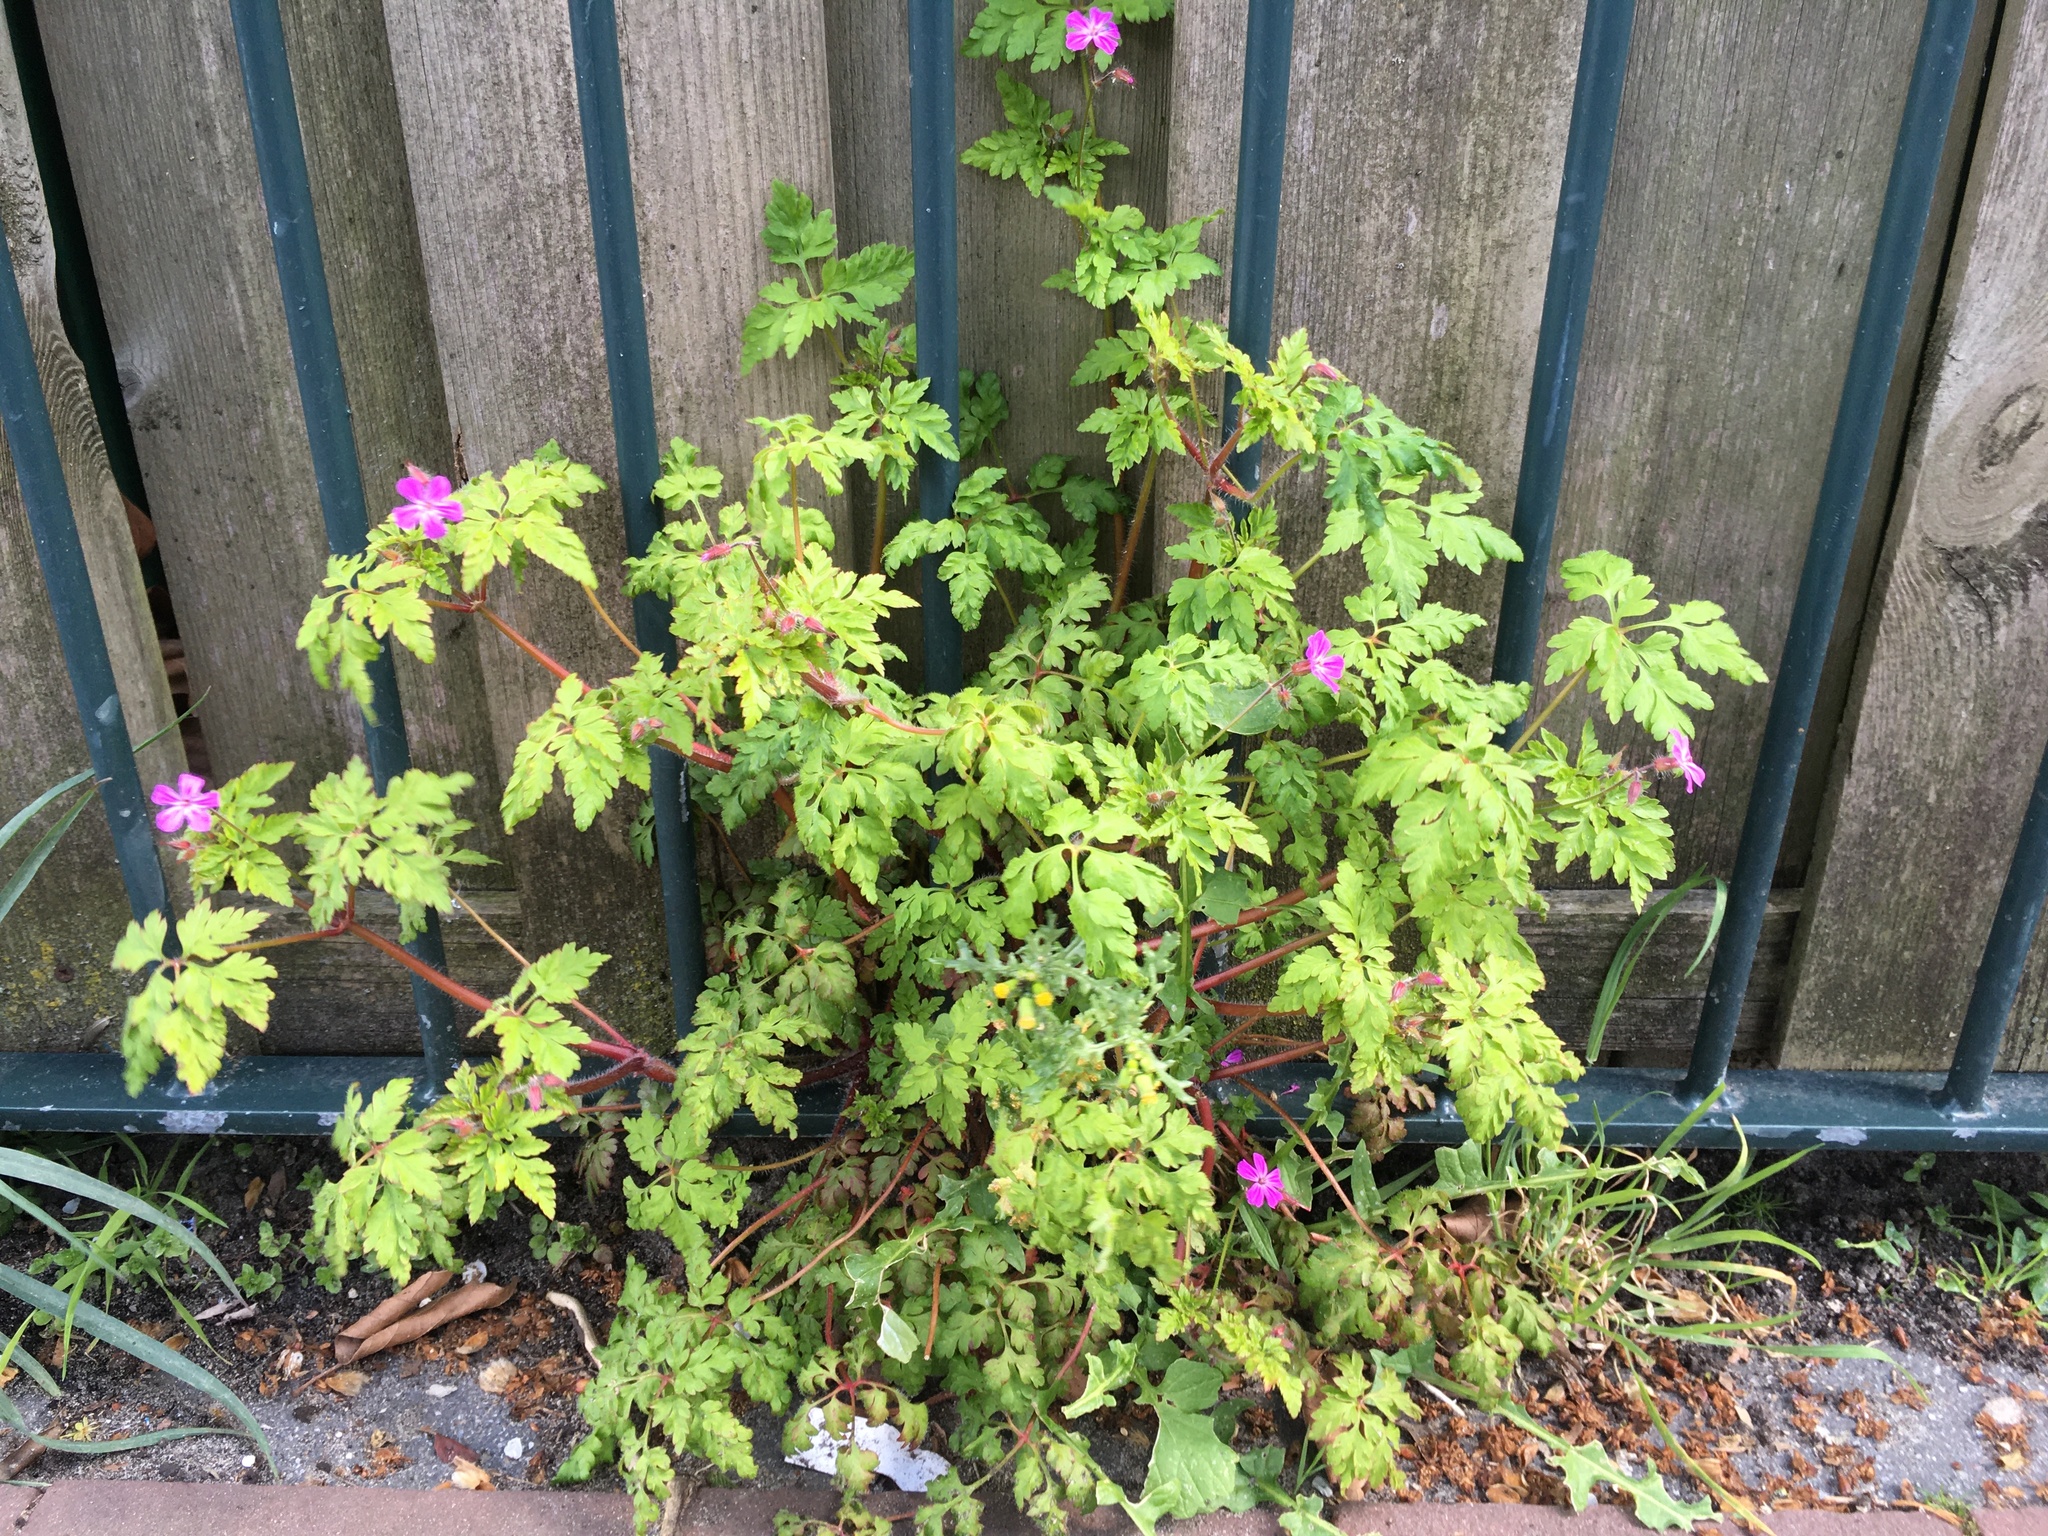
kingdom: Plantae
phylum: Tracheophyta
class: Magnoliopsida
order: Geraniales
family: Geraniaceae
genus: Geranium
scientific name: Geranium robertianum
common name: Herb-robert
